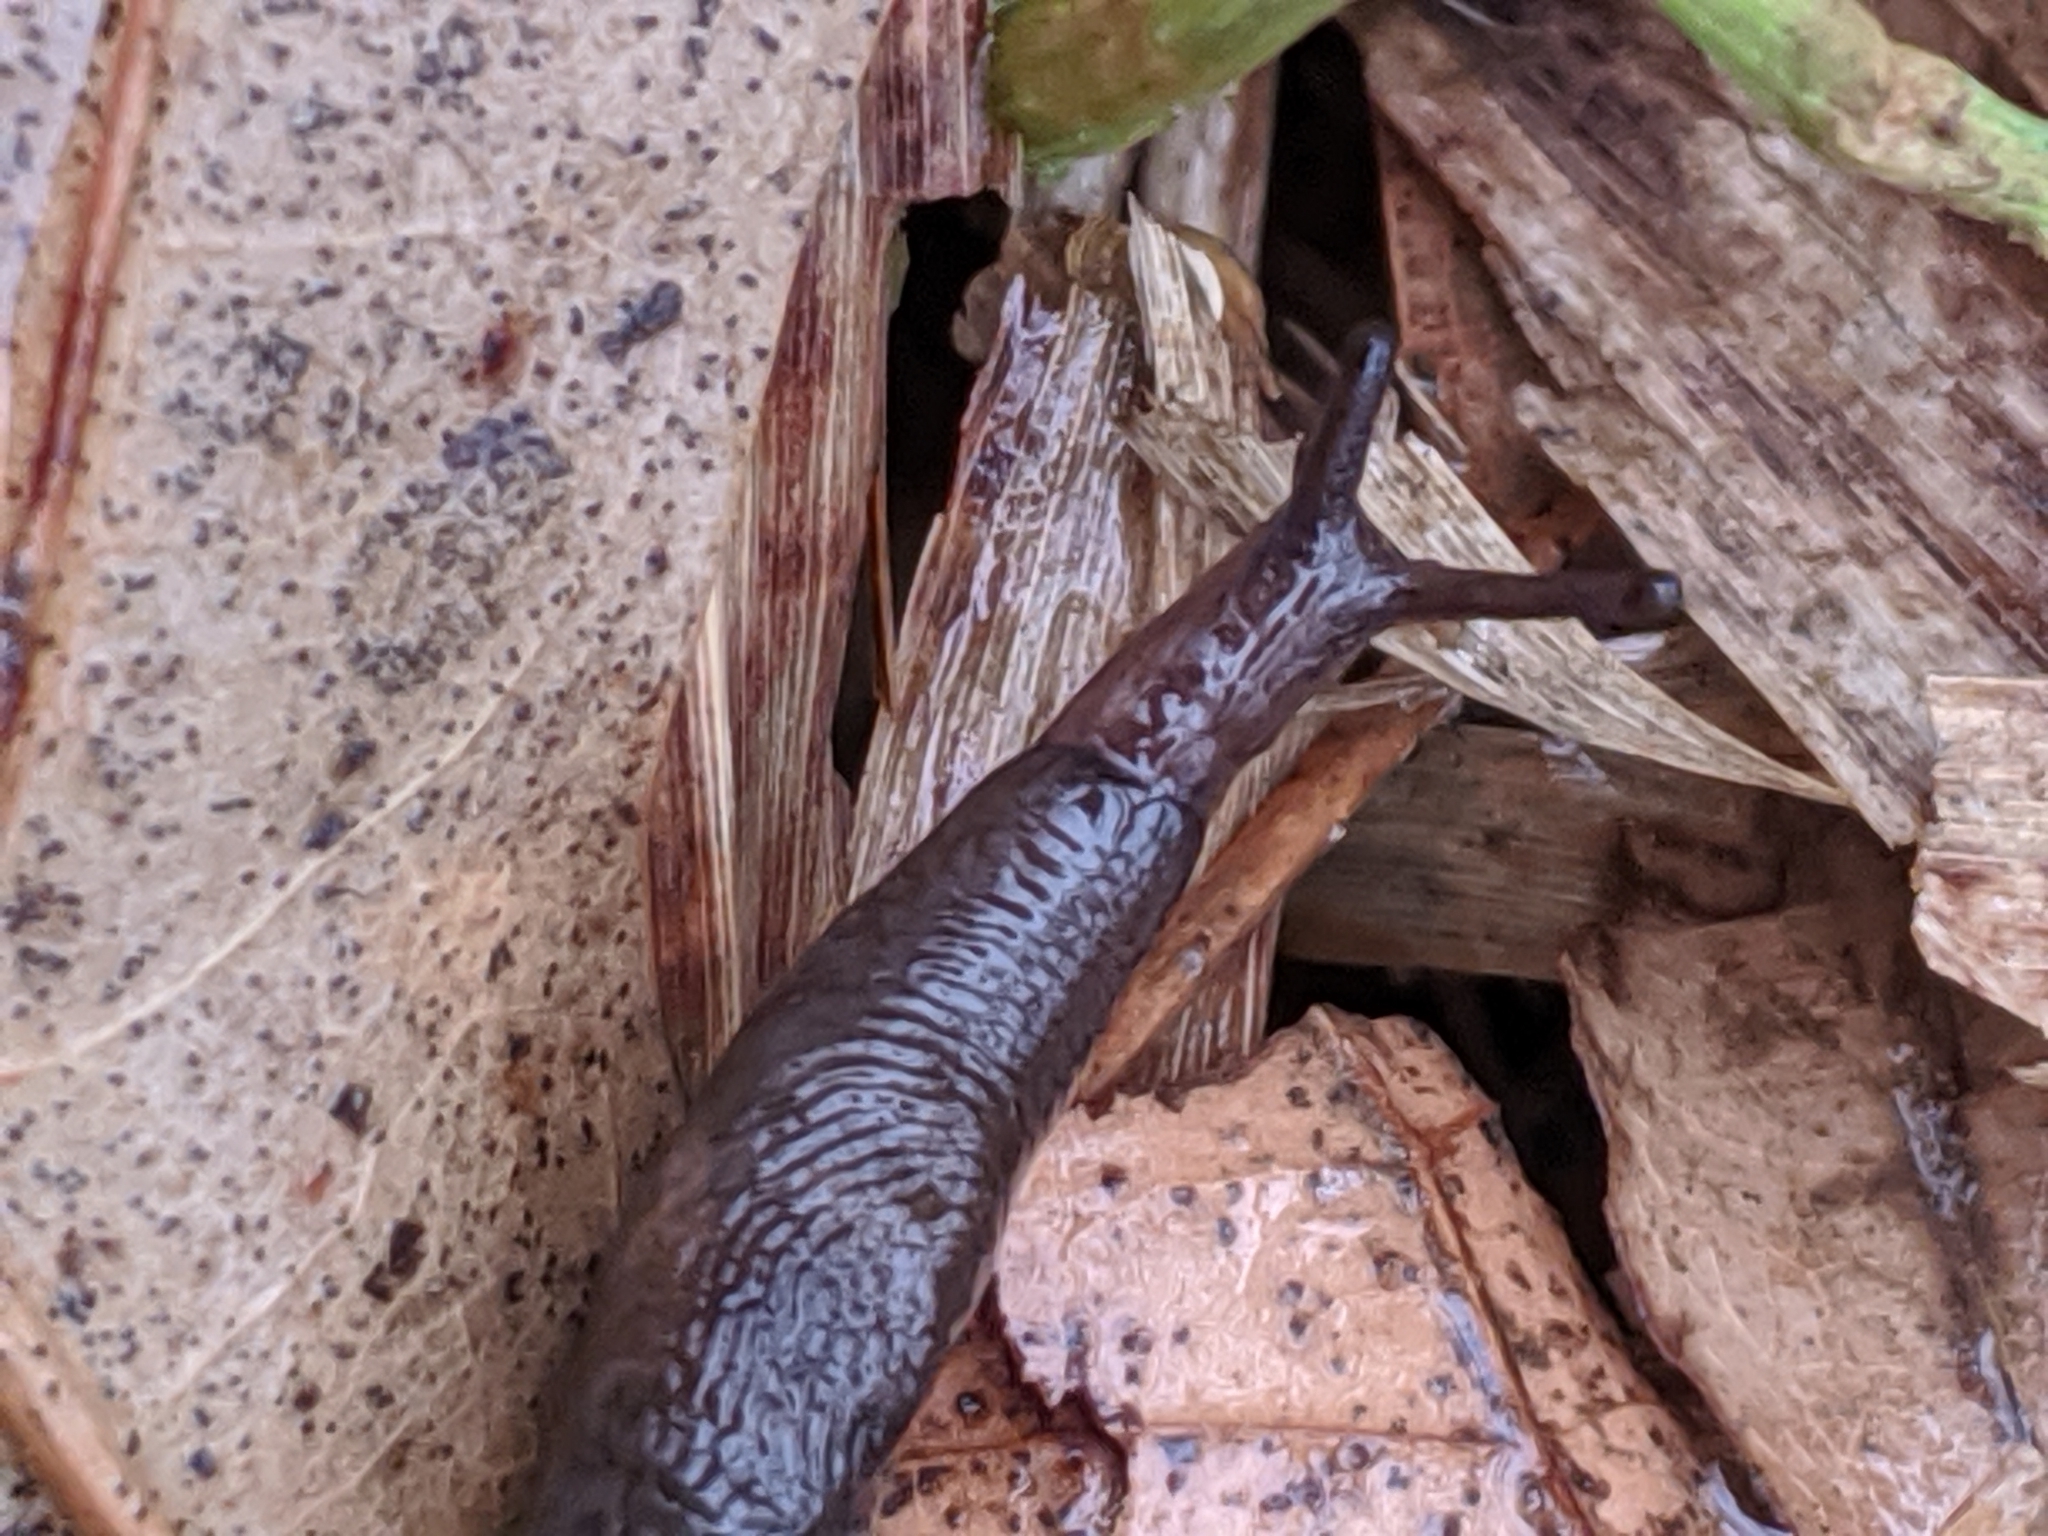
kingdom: Animalia
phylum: Mollusca
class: Gastropoda
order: Stylommatophora
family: Agriolimacidae
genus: Deroceras
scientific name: Deroceras laeve
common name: Marsh slug
